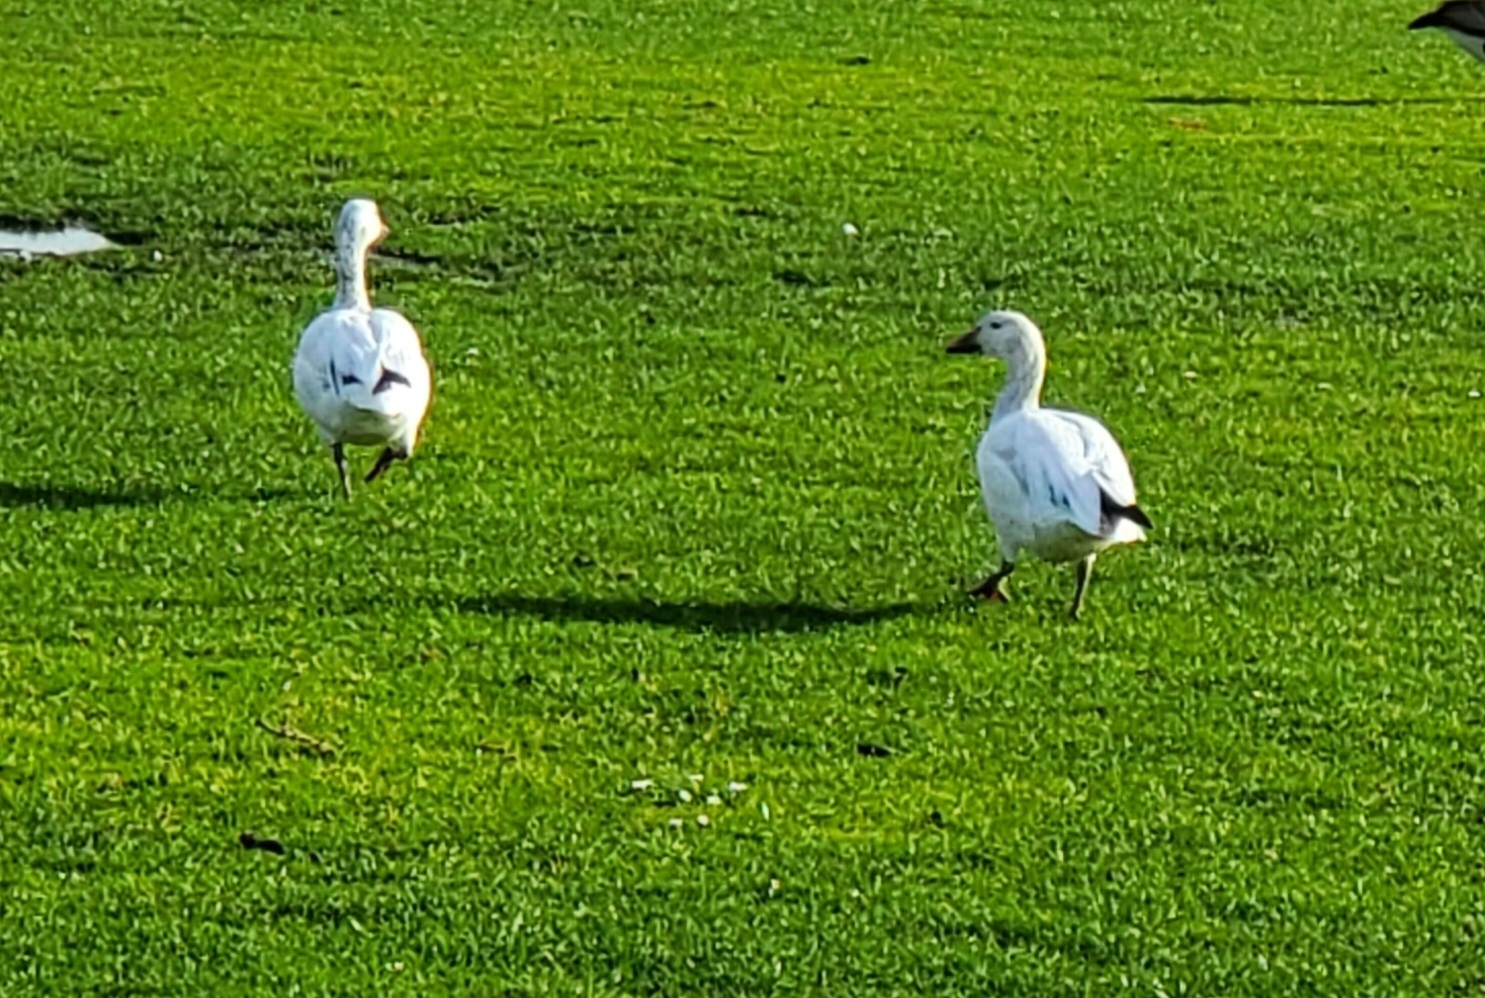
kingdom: Animalia
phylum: Chordata
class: Aves
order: Anseriformes
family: Anatidae
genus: Anser
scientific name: Anser caerulescens
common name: Snow goose
